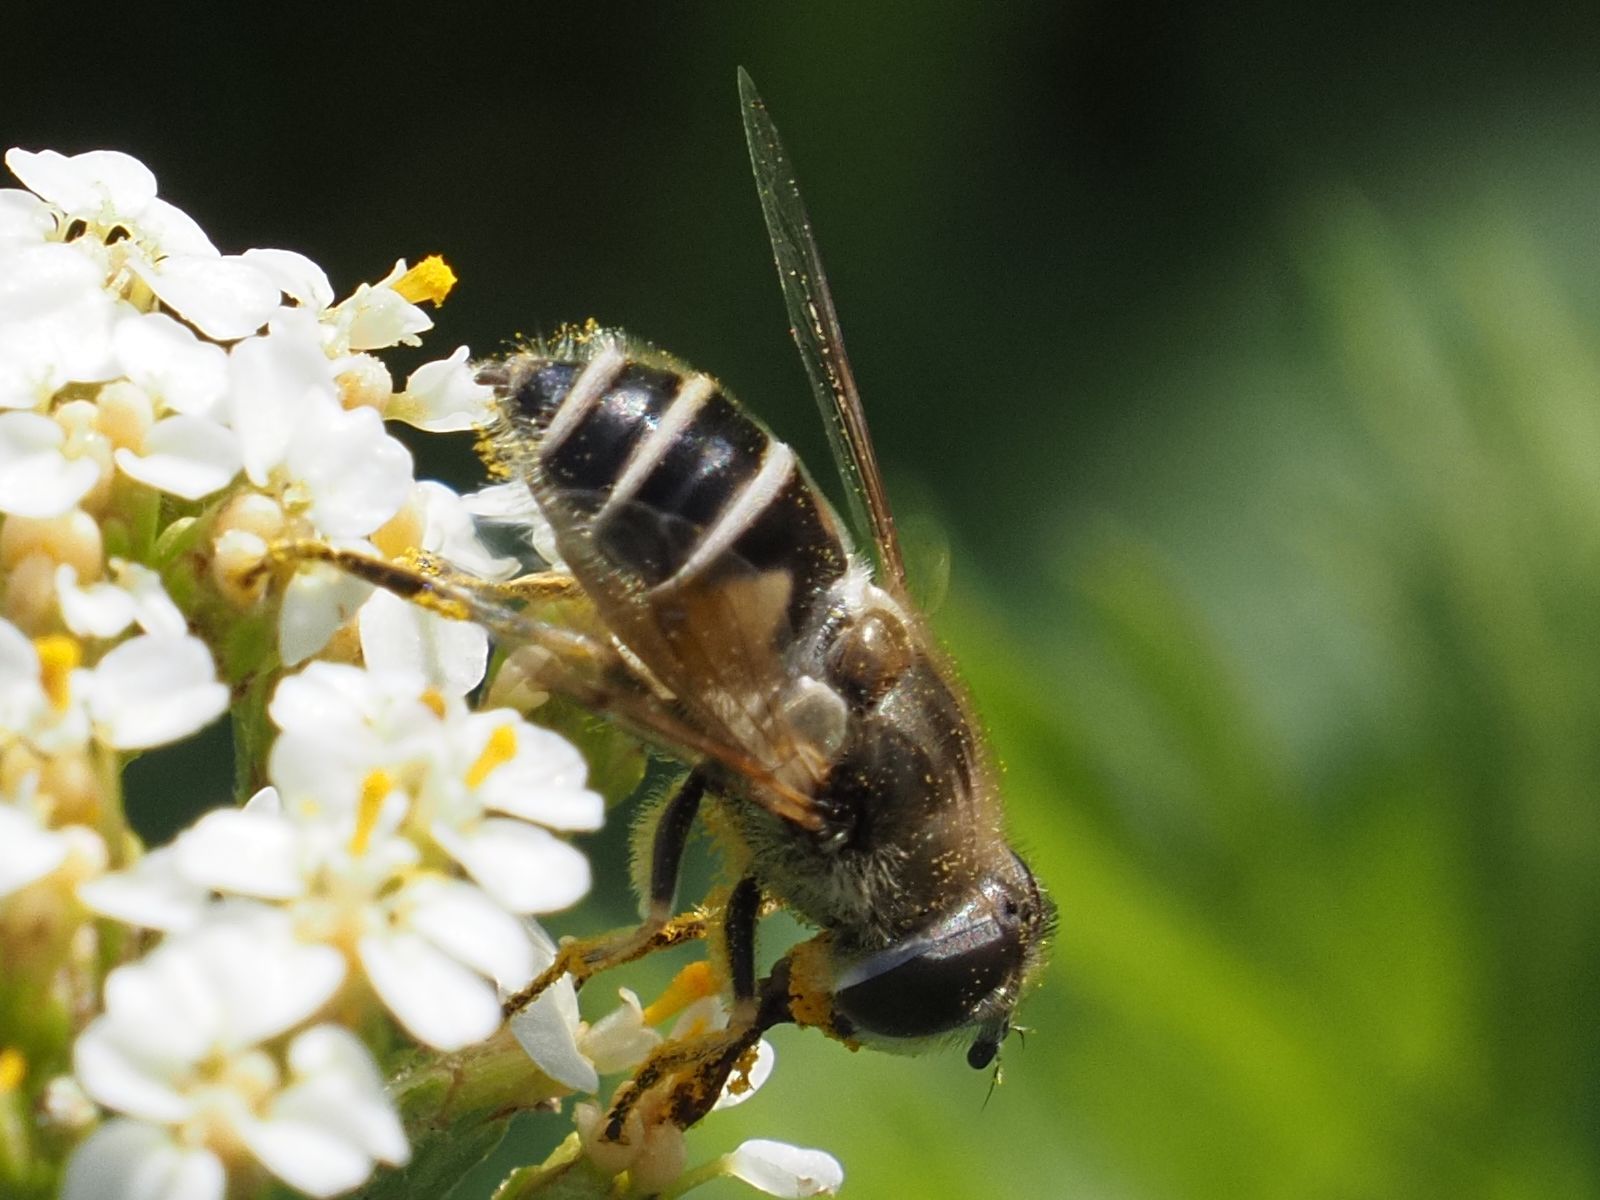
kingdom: Animalia
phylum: Arthropoda
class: Insecta
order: Diptera
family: Syrphidae
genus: Eristalis
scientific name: Eristalis arbustorum
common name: Hover fly
